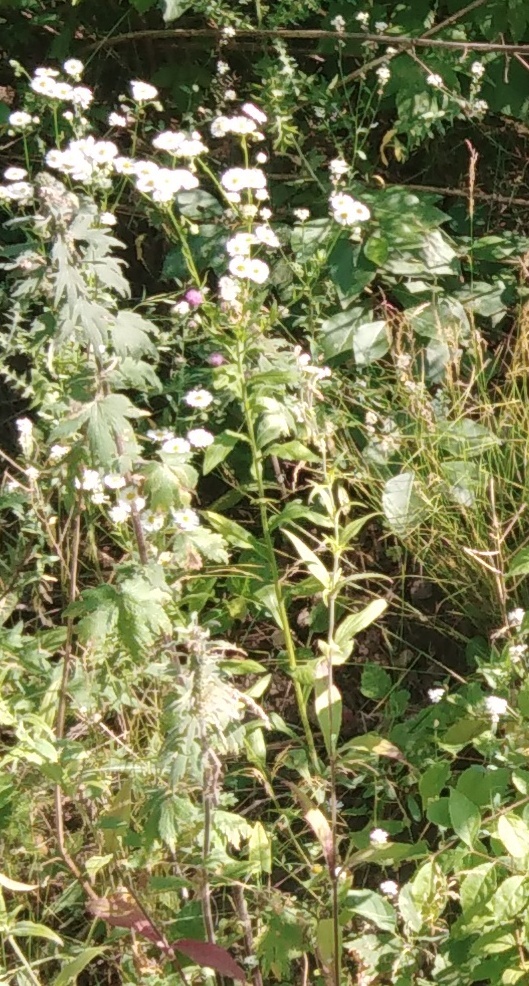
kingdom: Plantae
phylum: Tracheophyta
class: Magnoliopsida
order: Asterales
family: Asteraceae
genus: Erigeron
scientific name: Erigeron annuus
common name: Tall fleabane
